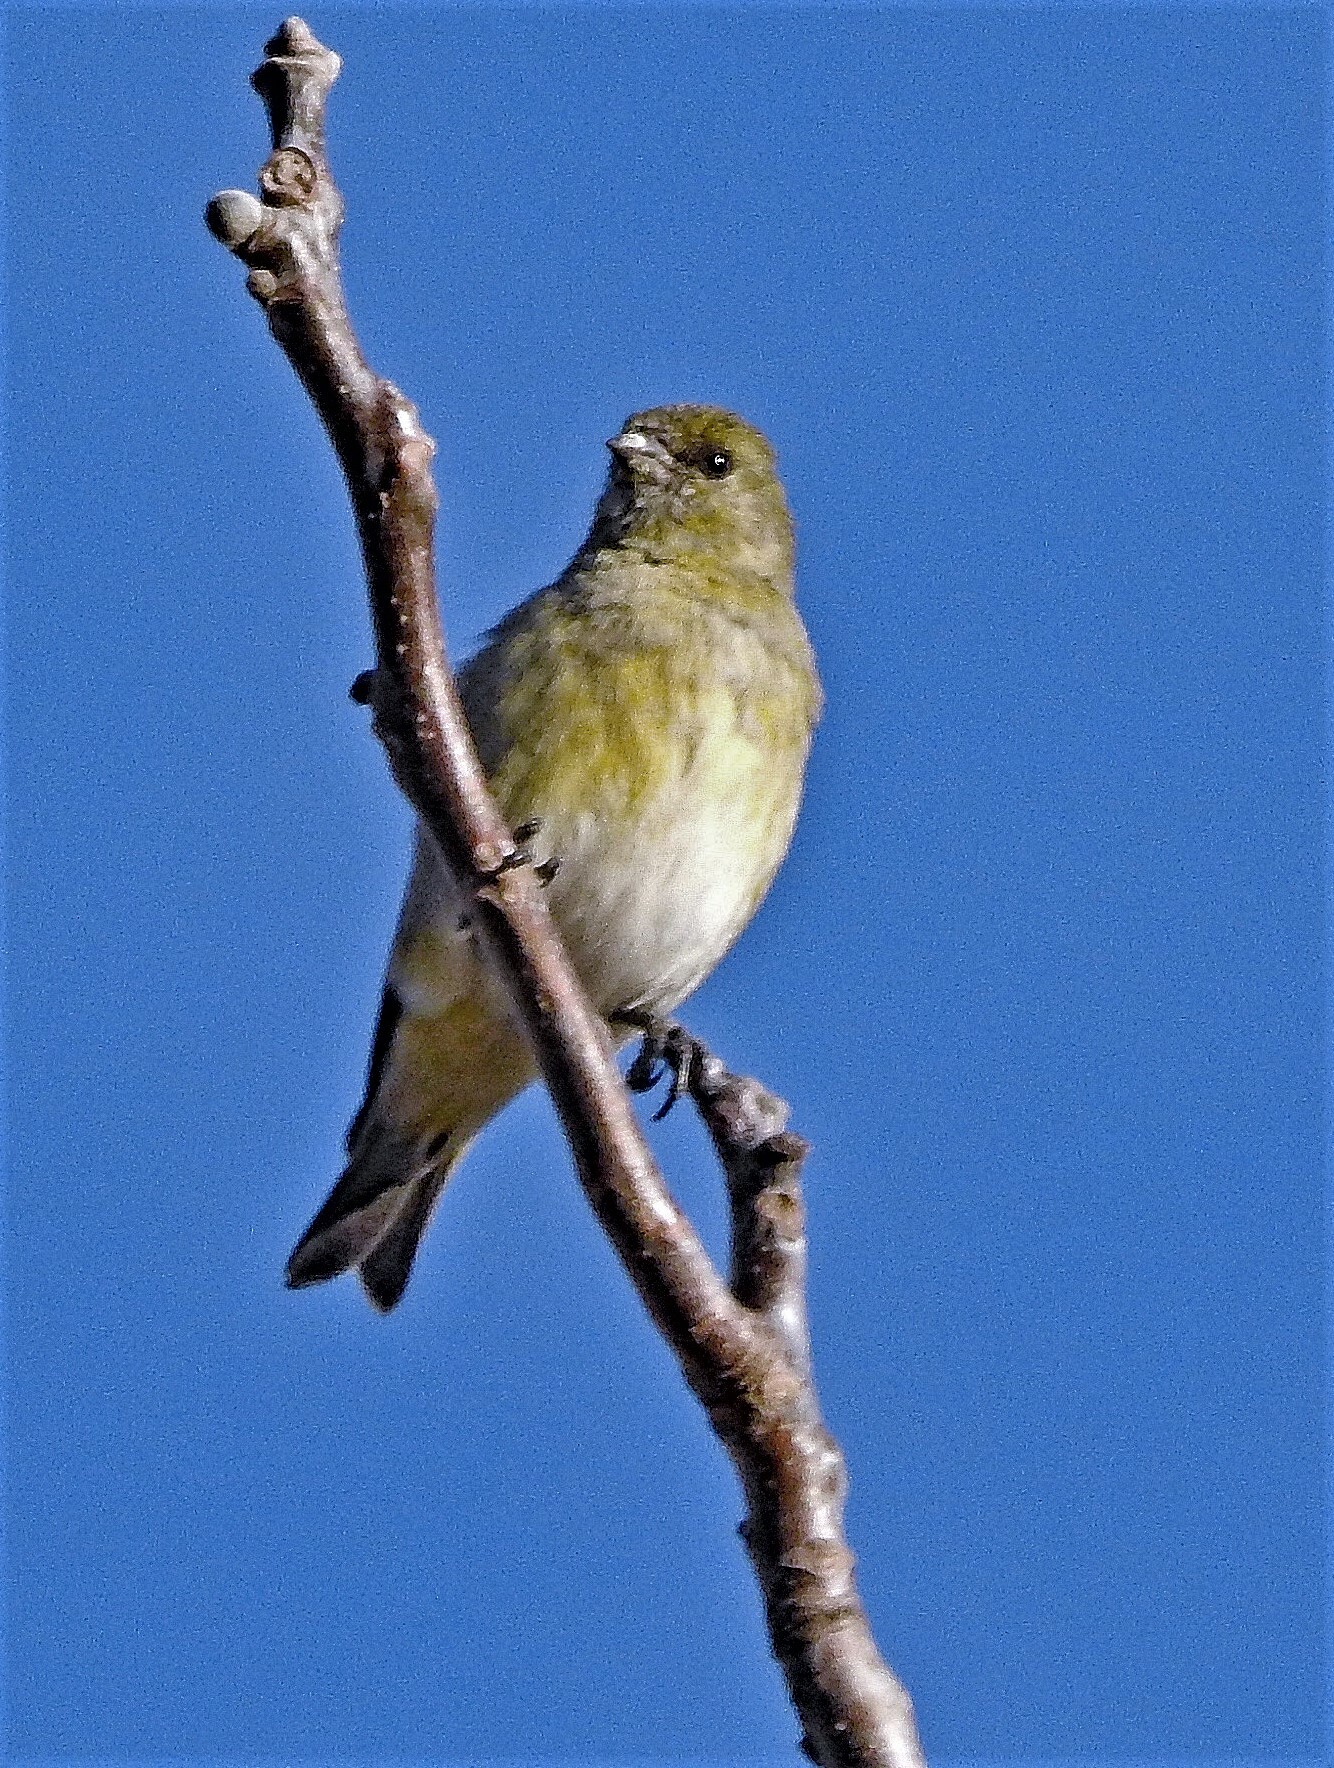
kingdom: Animalia
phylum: Chordata
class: Aves
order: Passeriformes
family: Fringillidae
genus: Spinus
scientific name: Spinus magellanicus
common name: Hooded siskin
